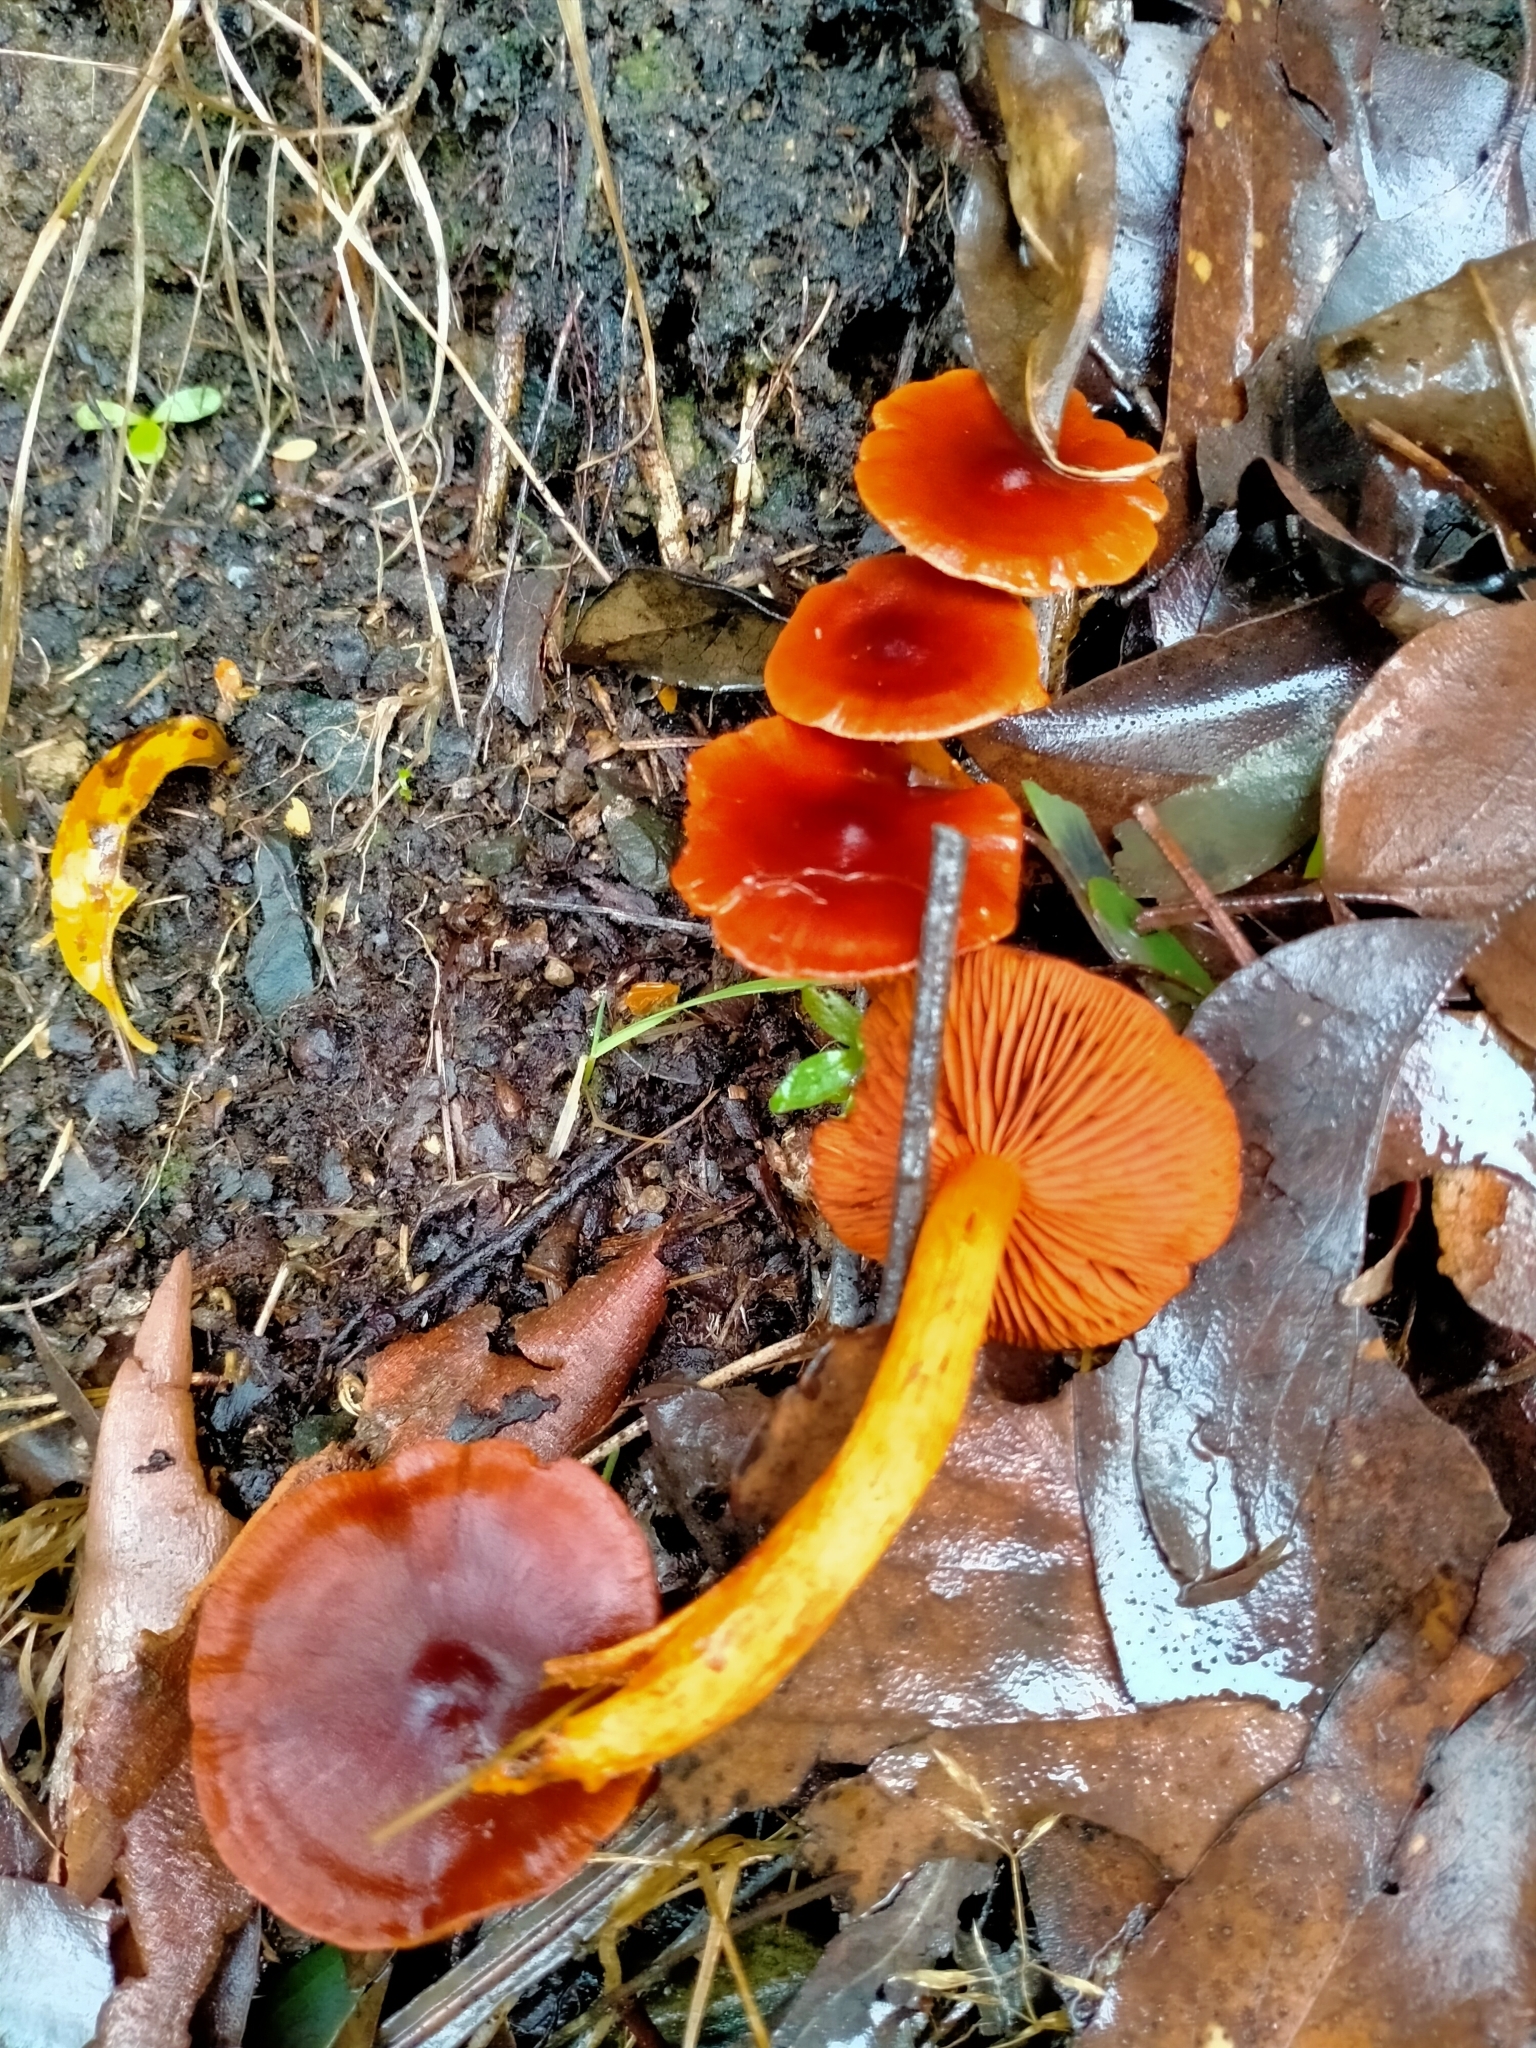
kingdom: Fungi
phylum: Basidiomycota
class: Agaricomycetes
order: Agaricales
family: Cortinariaceae
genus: Cortinarius
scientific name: Cortinarius
